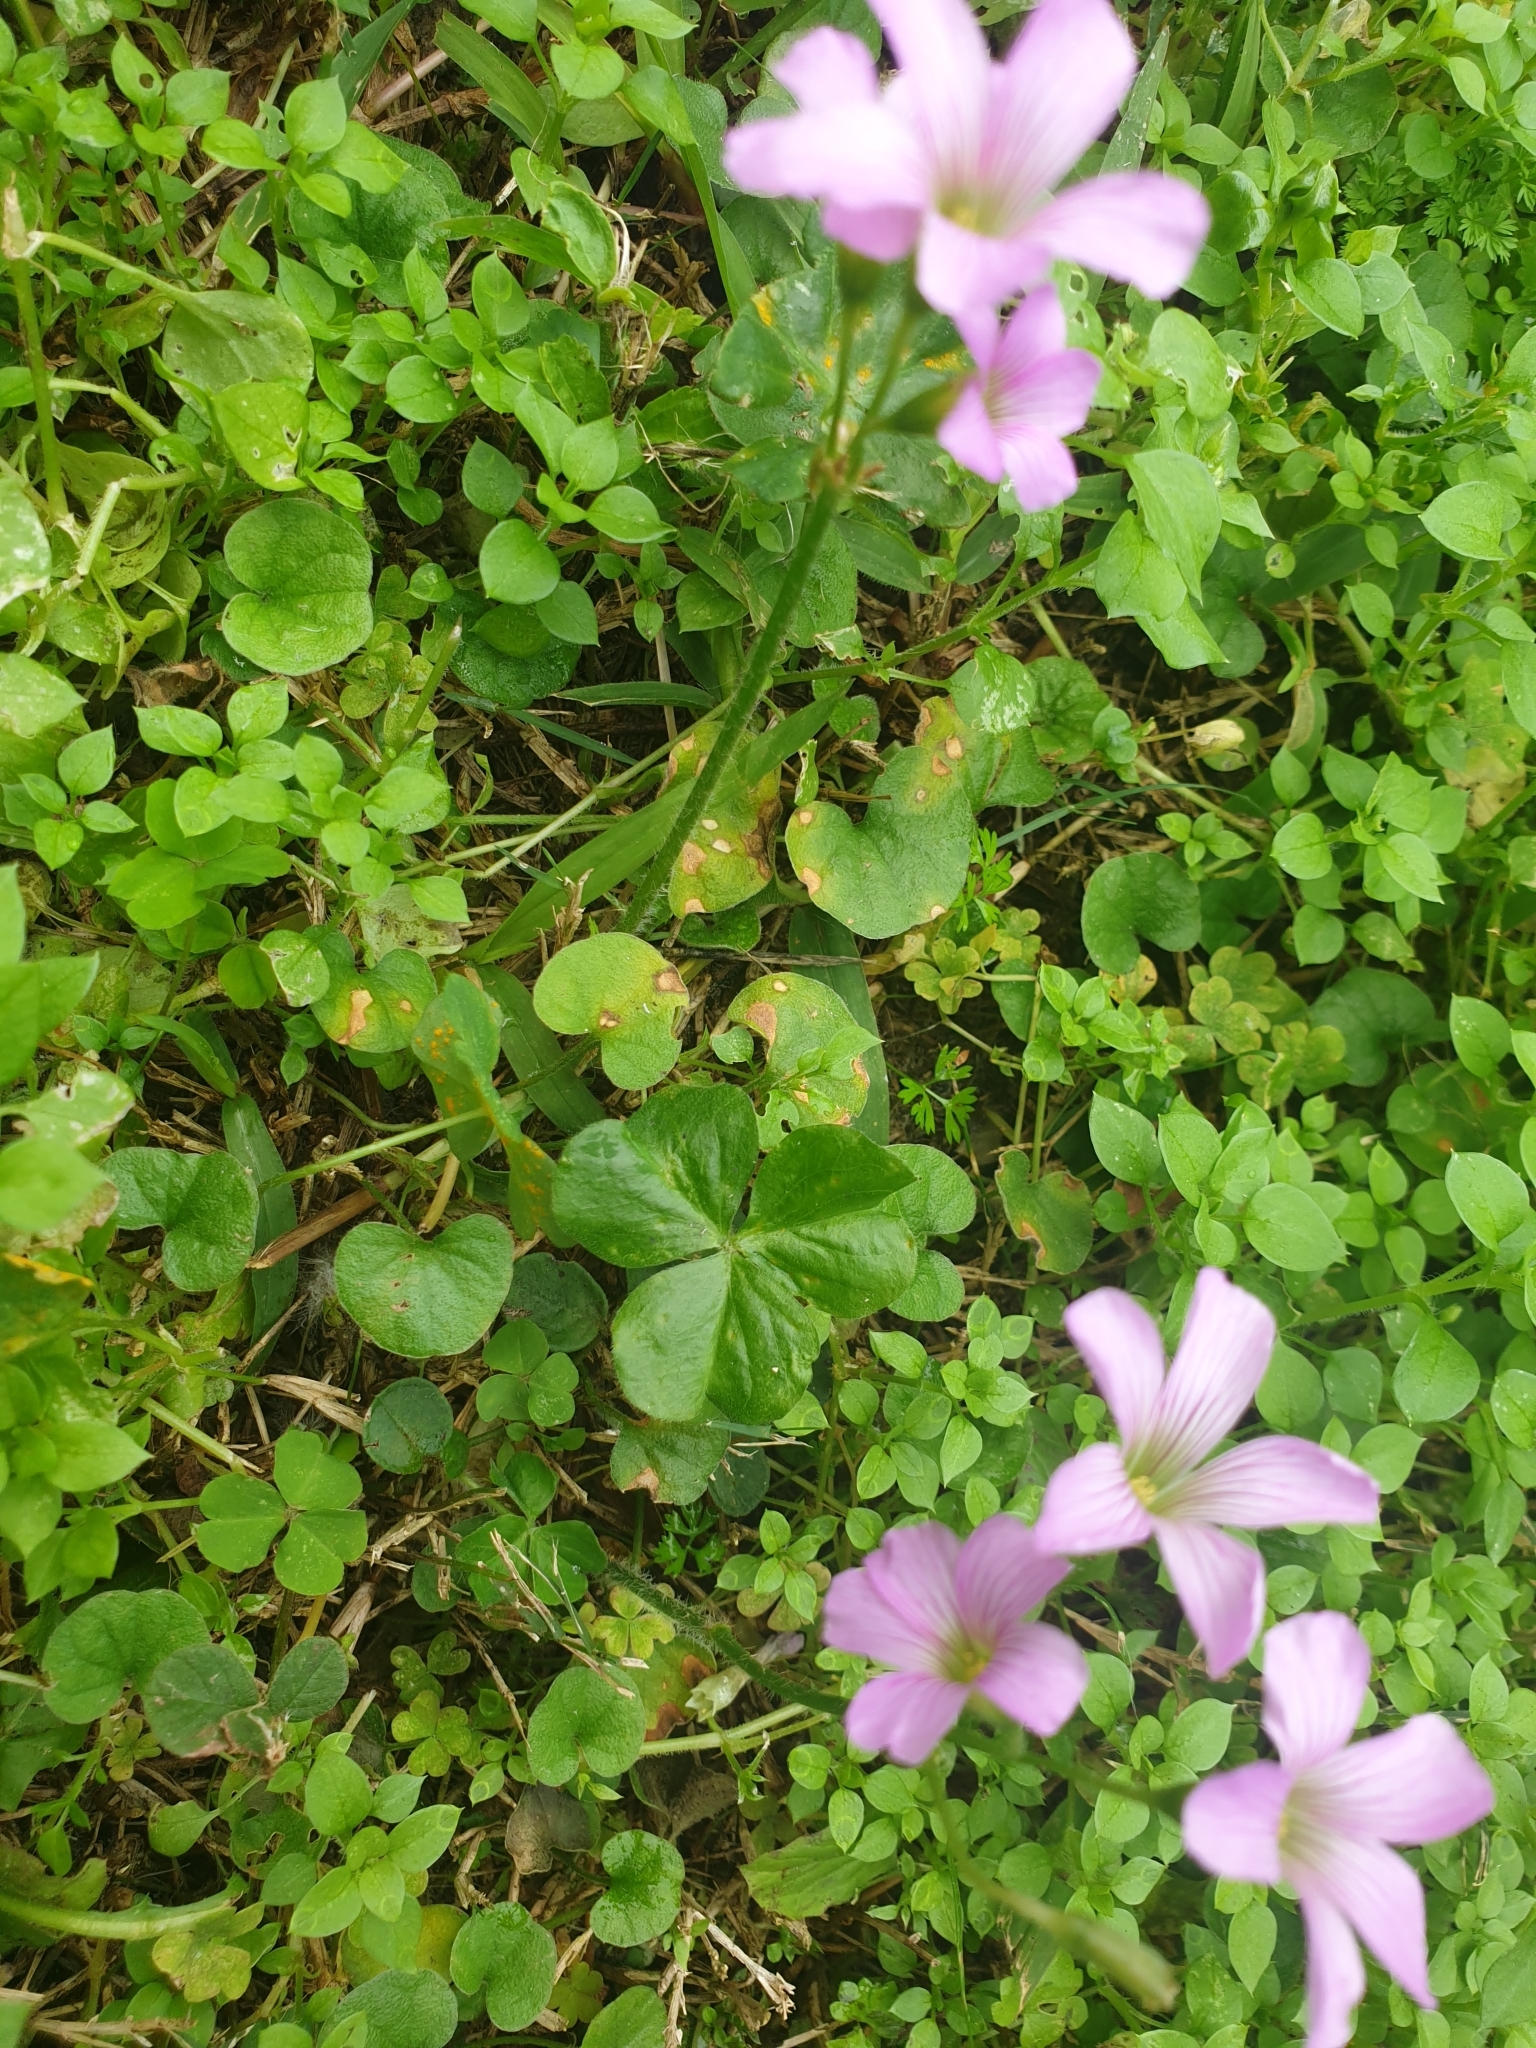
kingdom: Plantae
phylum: Tracheophyta
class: Magnoliopsida
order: Oxalidales
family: Oxalidaceae
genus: Oxalis
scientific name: Oxalis debilis
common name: Large-flowered pink-sorrel
